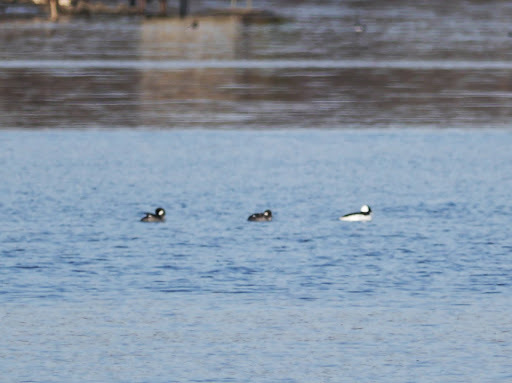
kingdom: Animalia
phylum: Chordata
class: Aves
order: Anseriformes
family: Anatidae
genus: Bucephala
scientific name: Bucephala albeola
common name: Bufflehead
